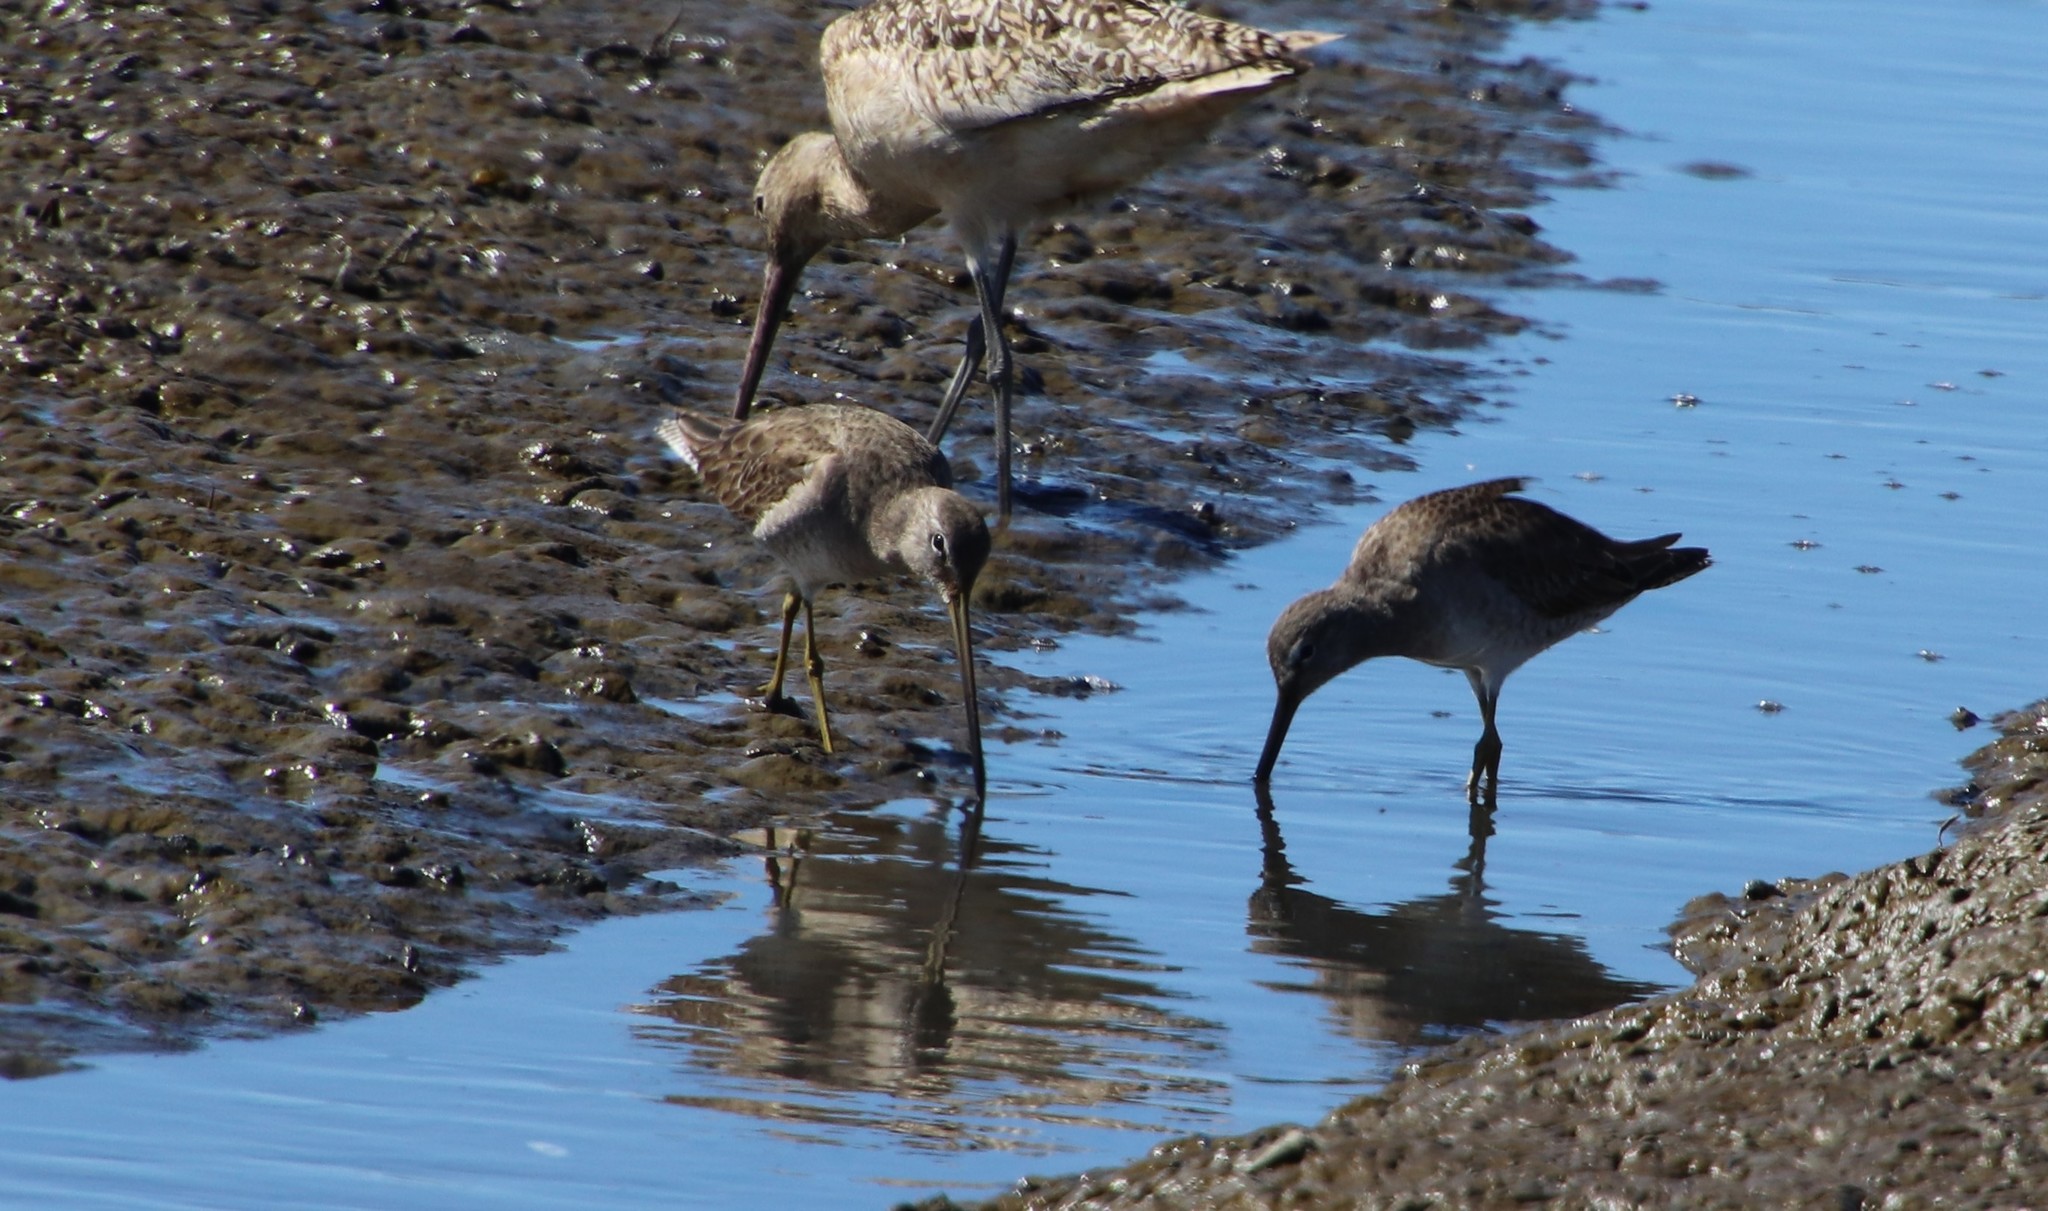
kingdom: Animalia
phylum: Chordata
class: Aves
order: Charadriiformes
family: Scolopacidae
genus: Limnodromus
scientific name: Limnodromus
